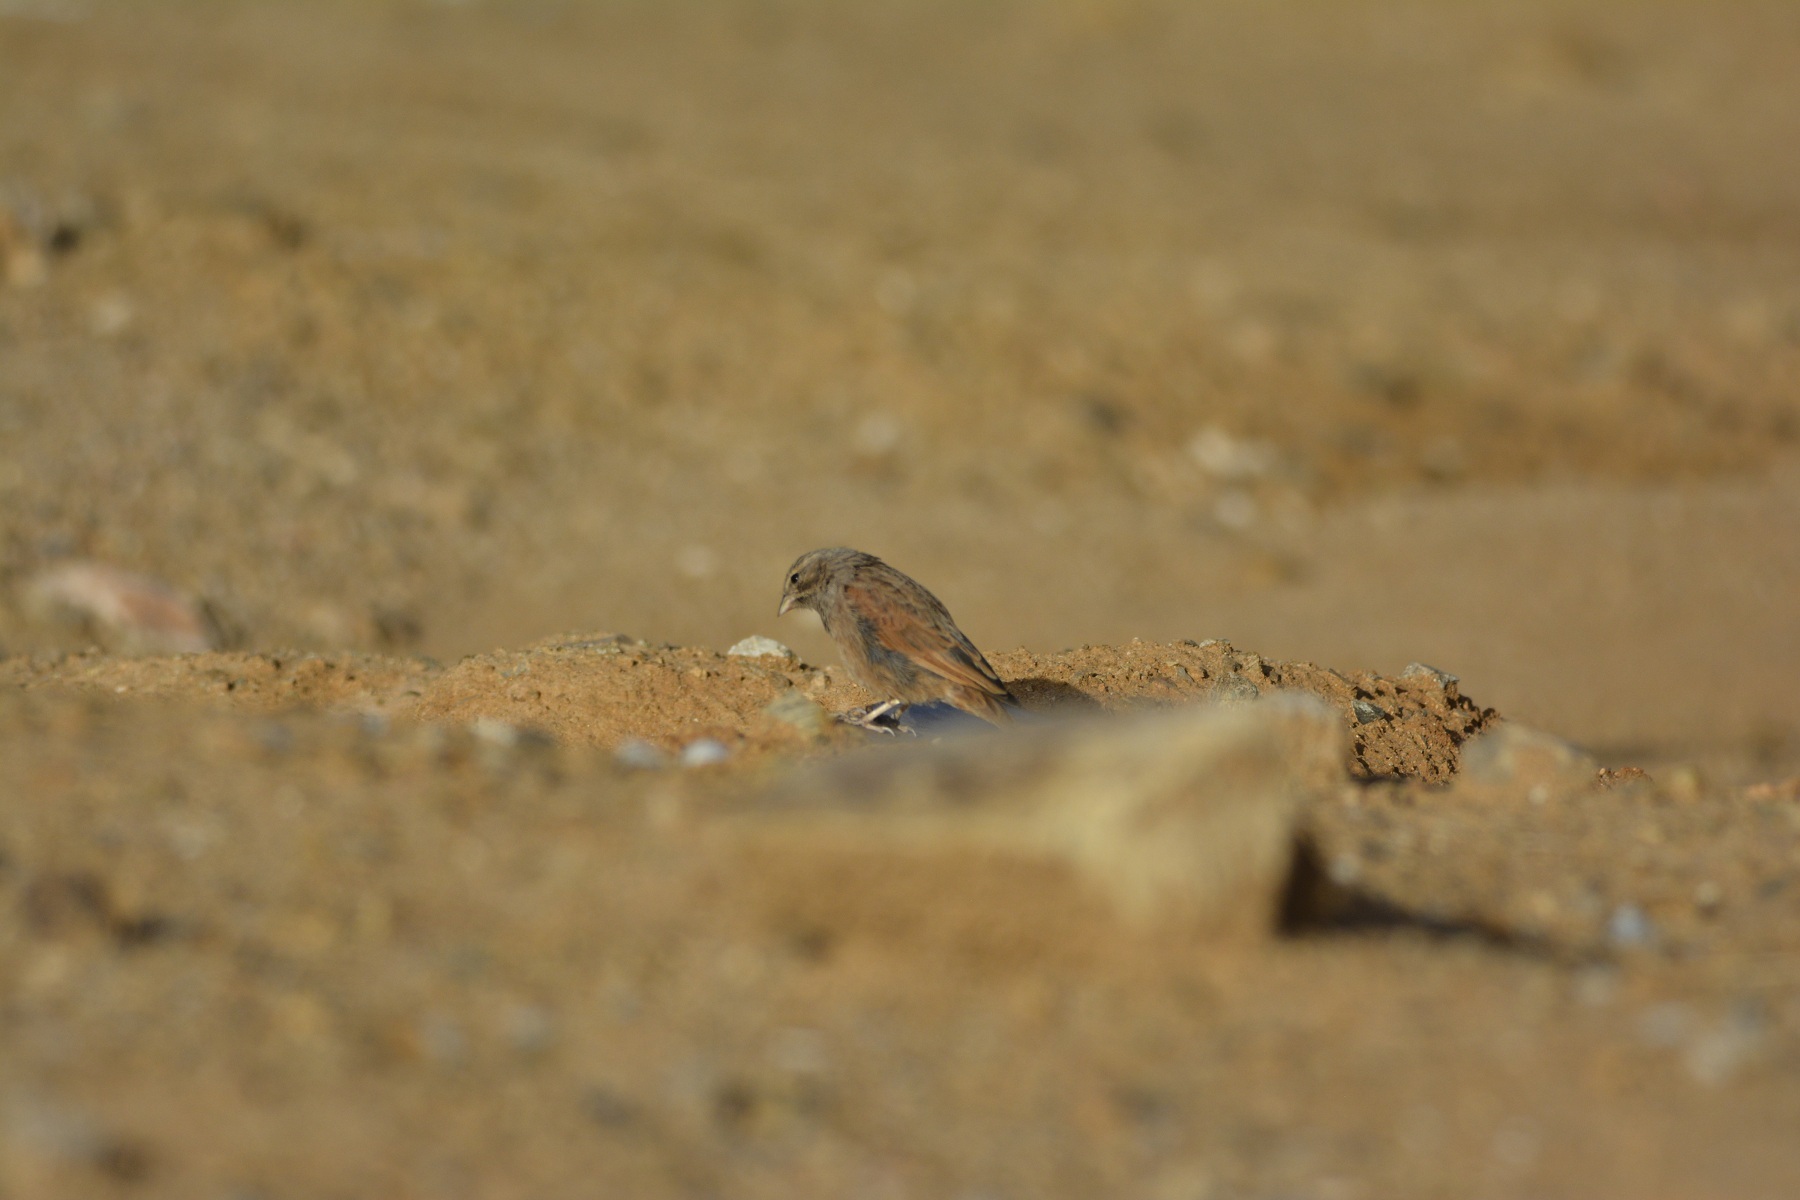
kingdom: Animalia
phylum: Chordata
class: Aves
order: Passeriformes
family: Emberizidae
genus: Emberiza
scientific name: Emberiza sahari
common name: House bunting
